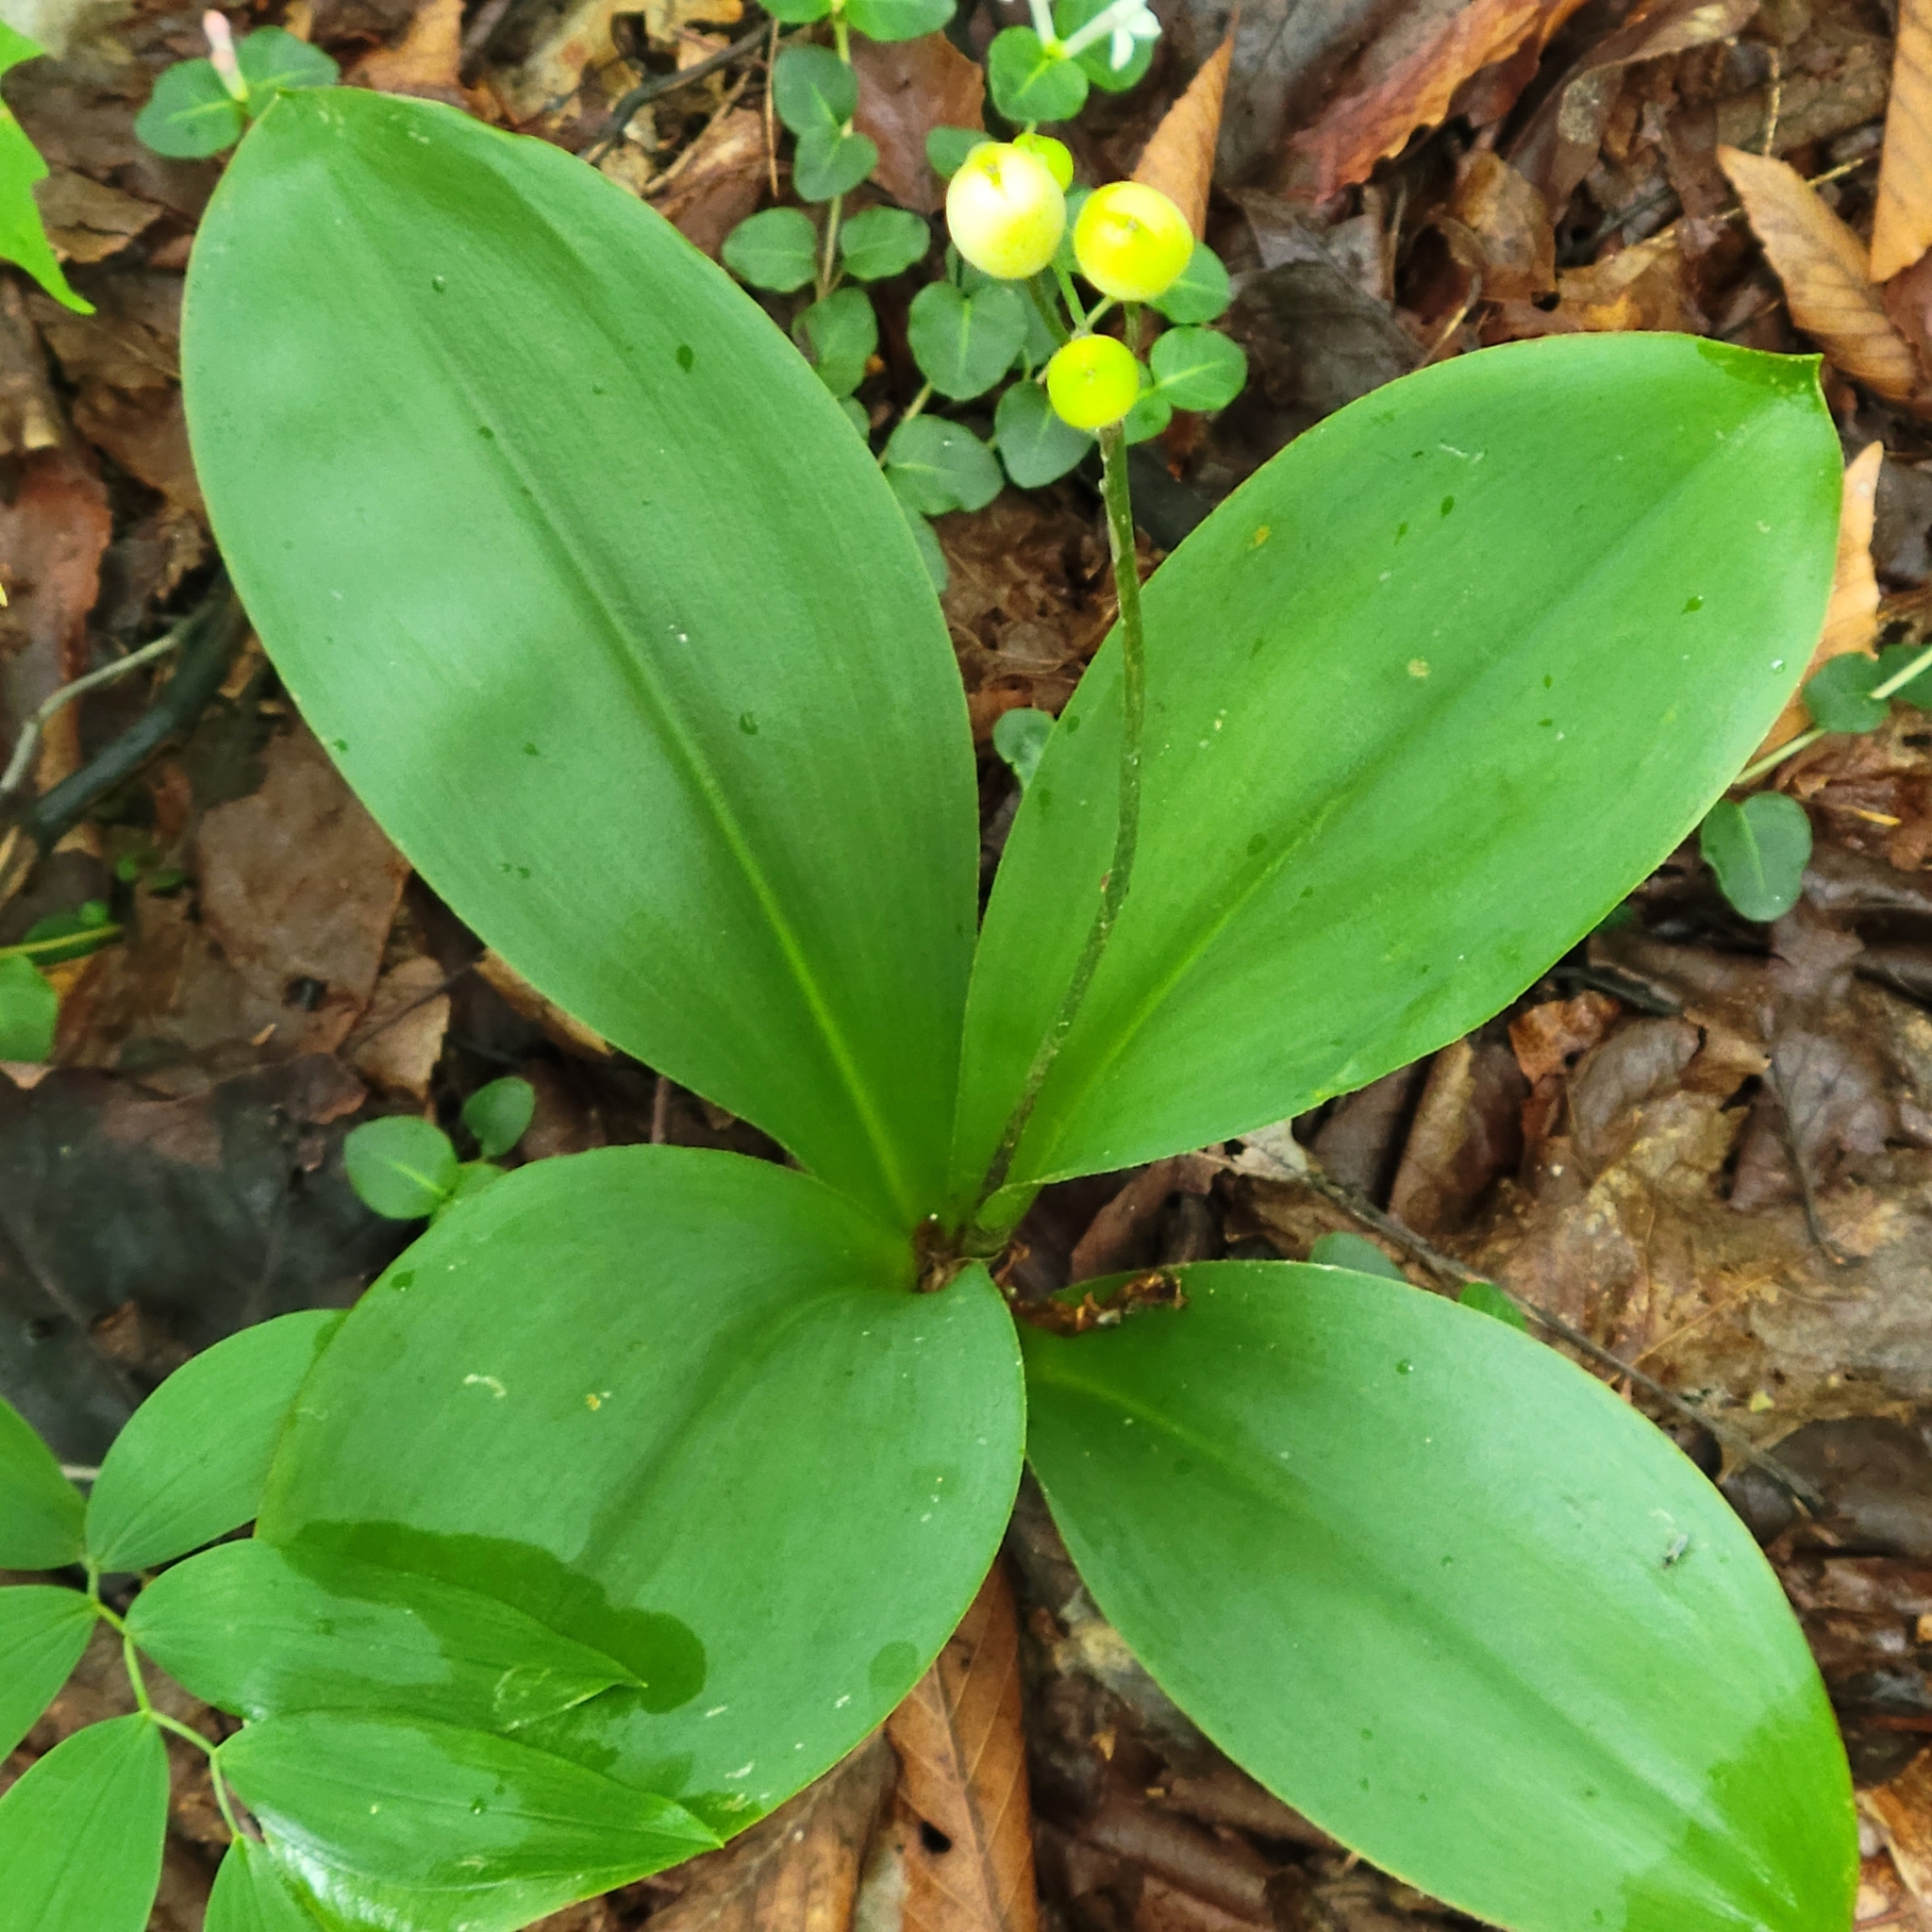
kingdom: Plantae
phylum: Tracheophyta
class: Liliopsida
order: Liliales
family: Liliaceae
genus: Clintonia
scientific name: Clintonia borealis
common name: Yellow clintonia
